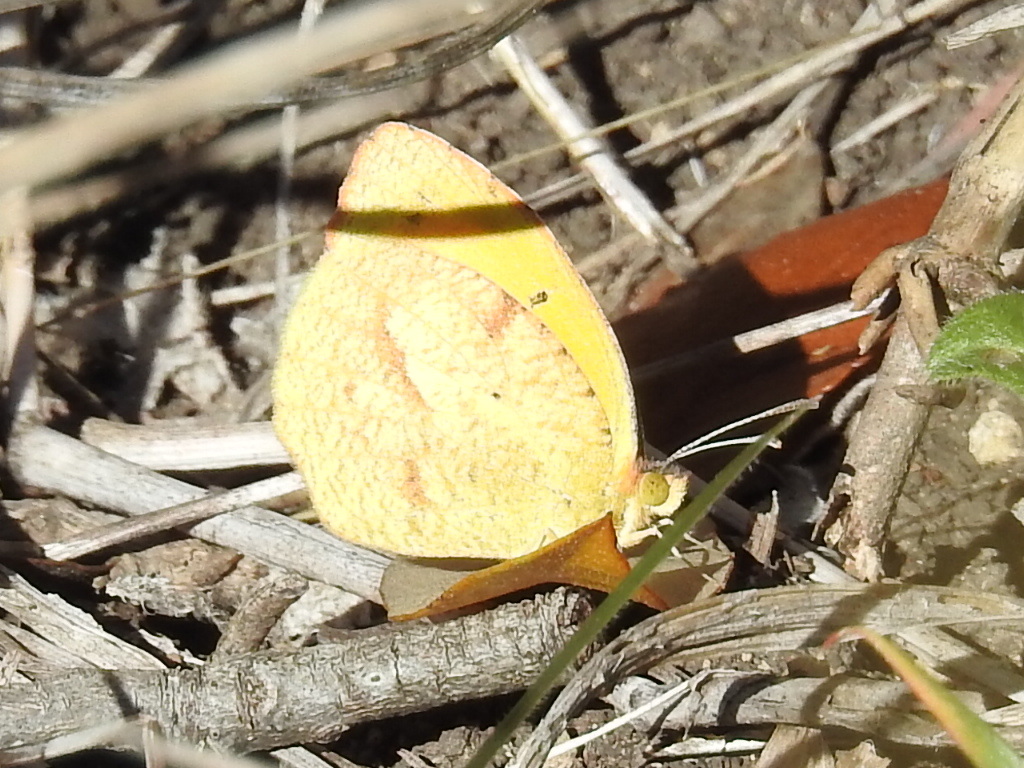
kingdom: Animalia
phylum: Arthropoda
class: Insecta
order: Lepidoptera
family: Pieridae
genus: Abaeis
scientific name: Abaeis nicippe
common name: Sleepy orange
